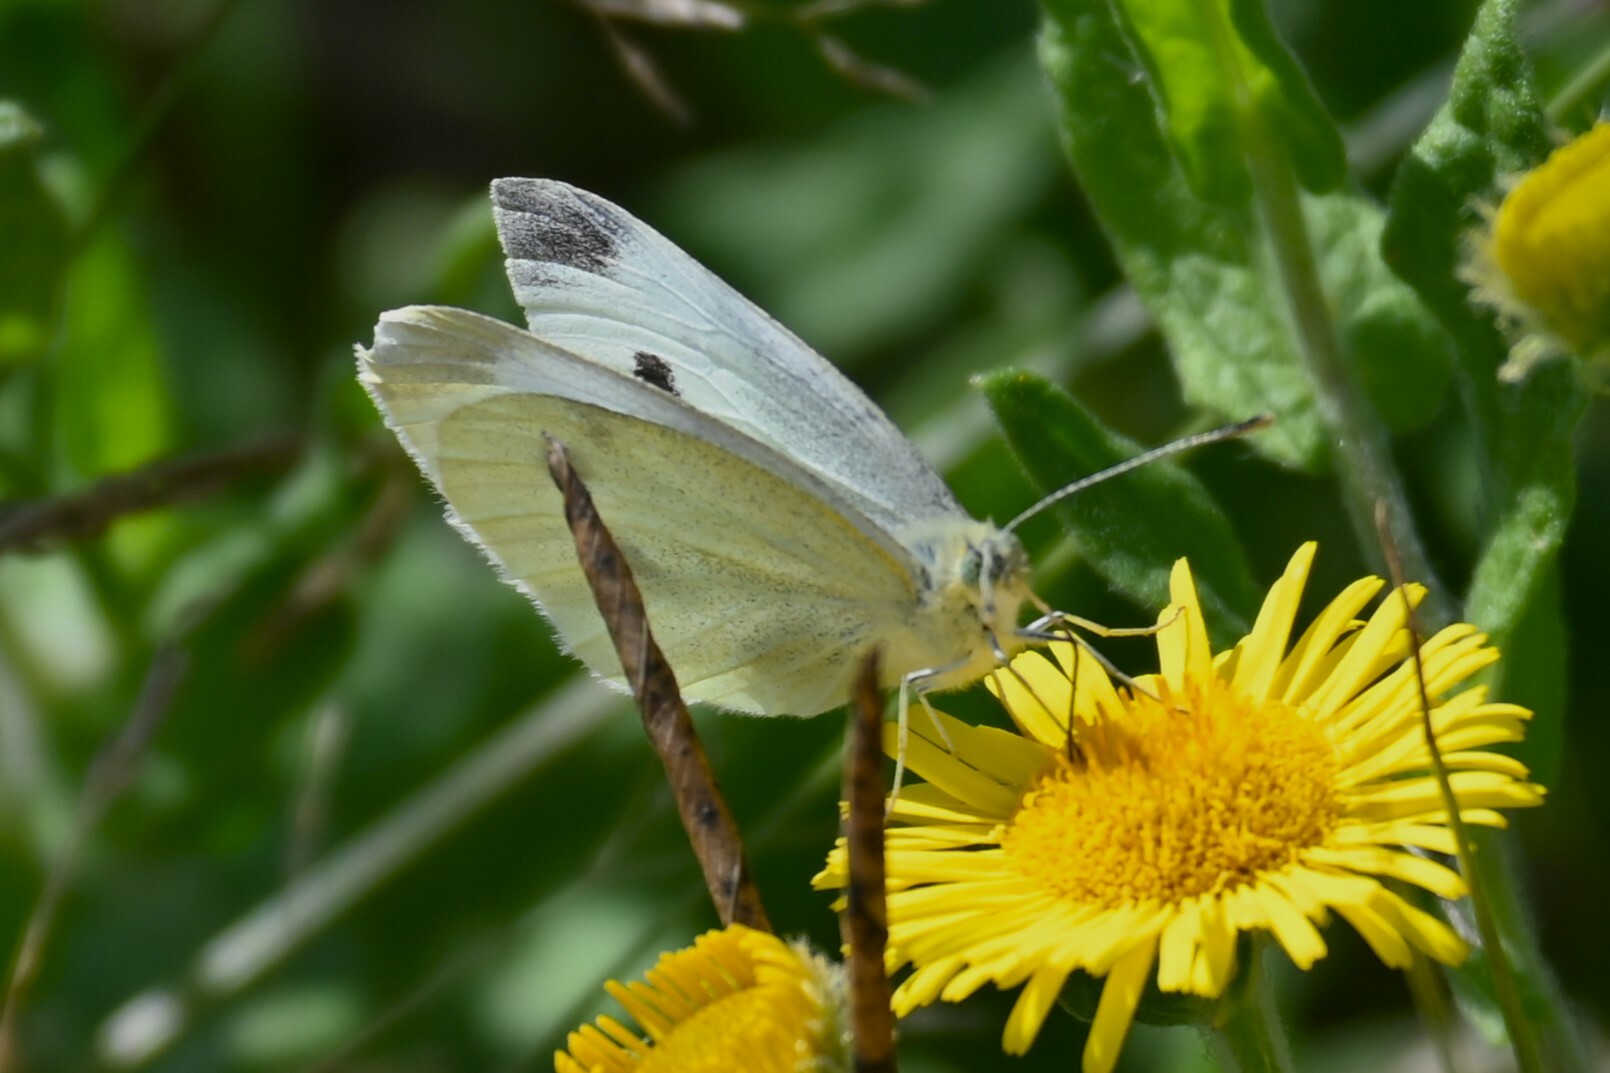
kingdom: Animalia
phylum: Arthropoda
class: Insecta
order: Lepidoptera
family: Pieridae
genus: Pieris
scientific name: Pieris rapae
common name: Small white
